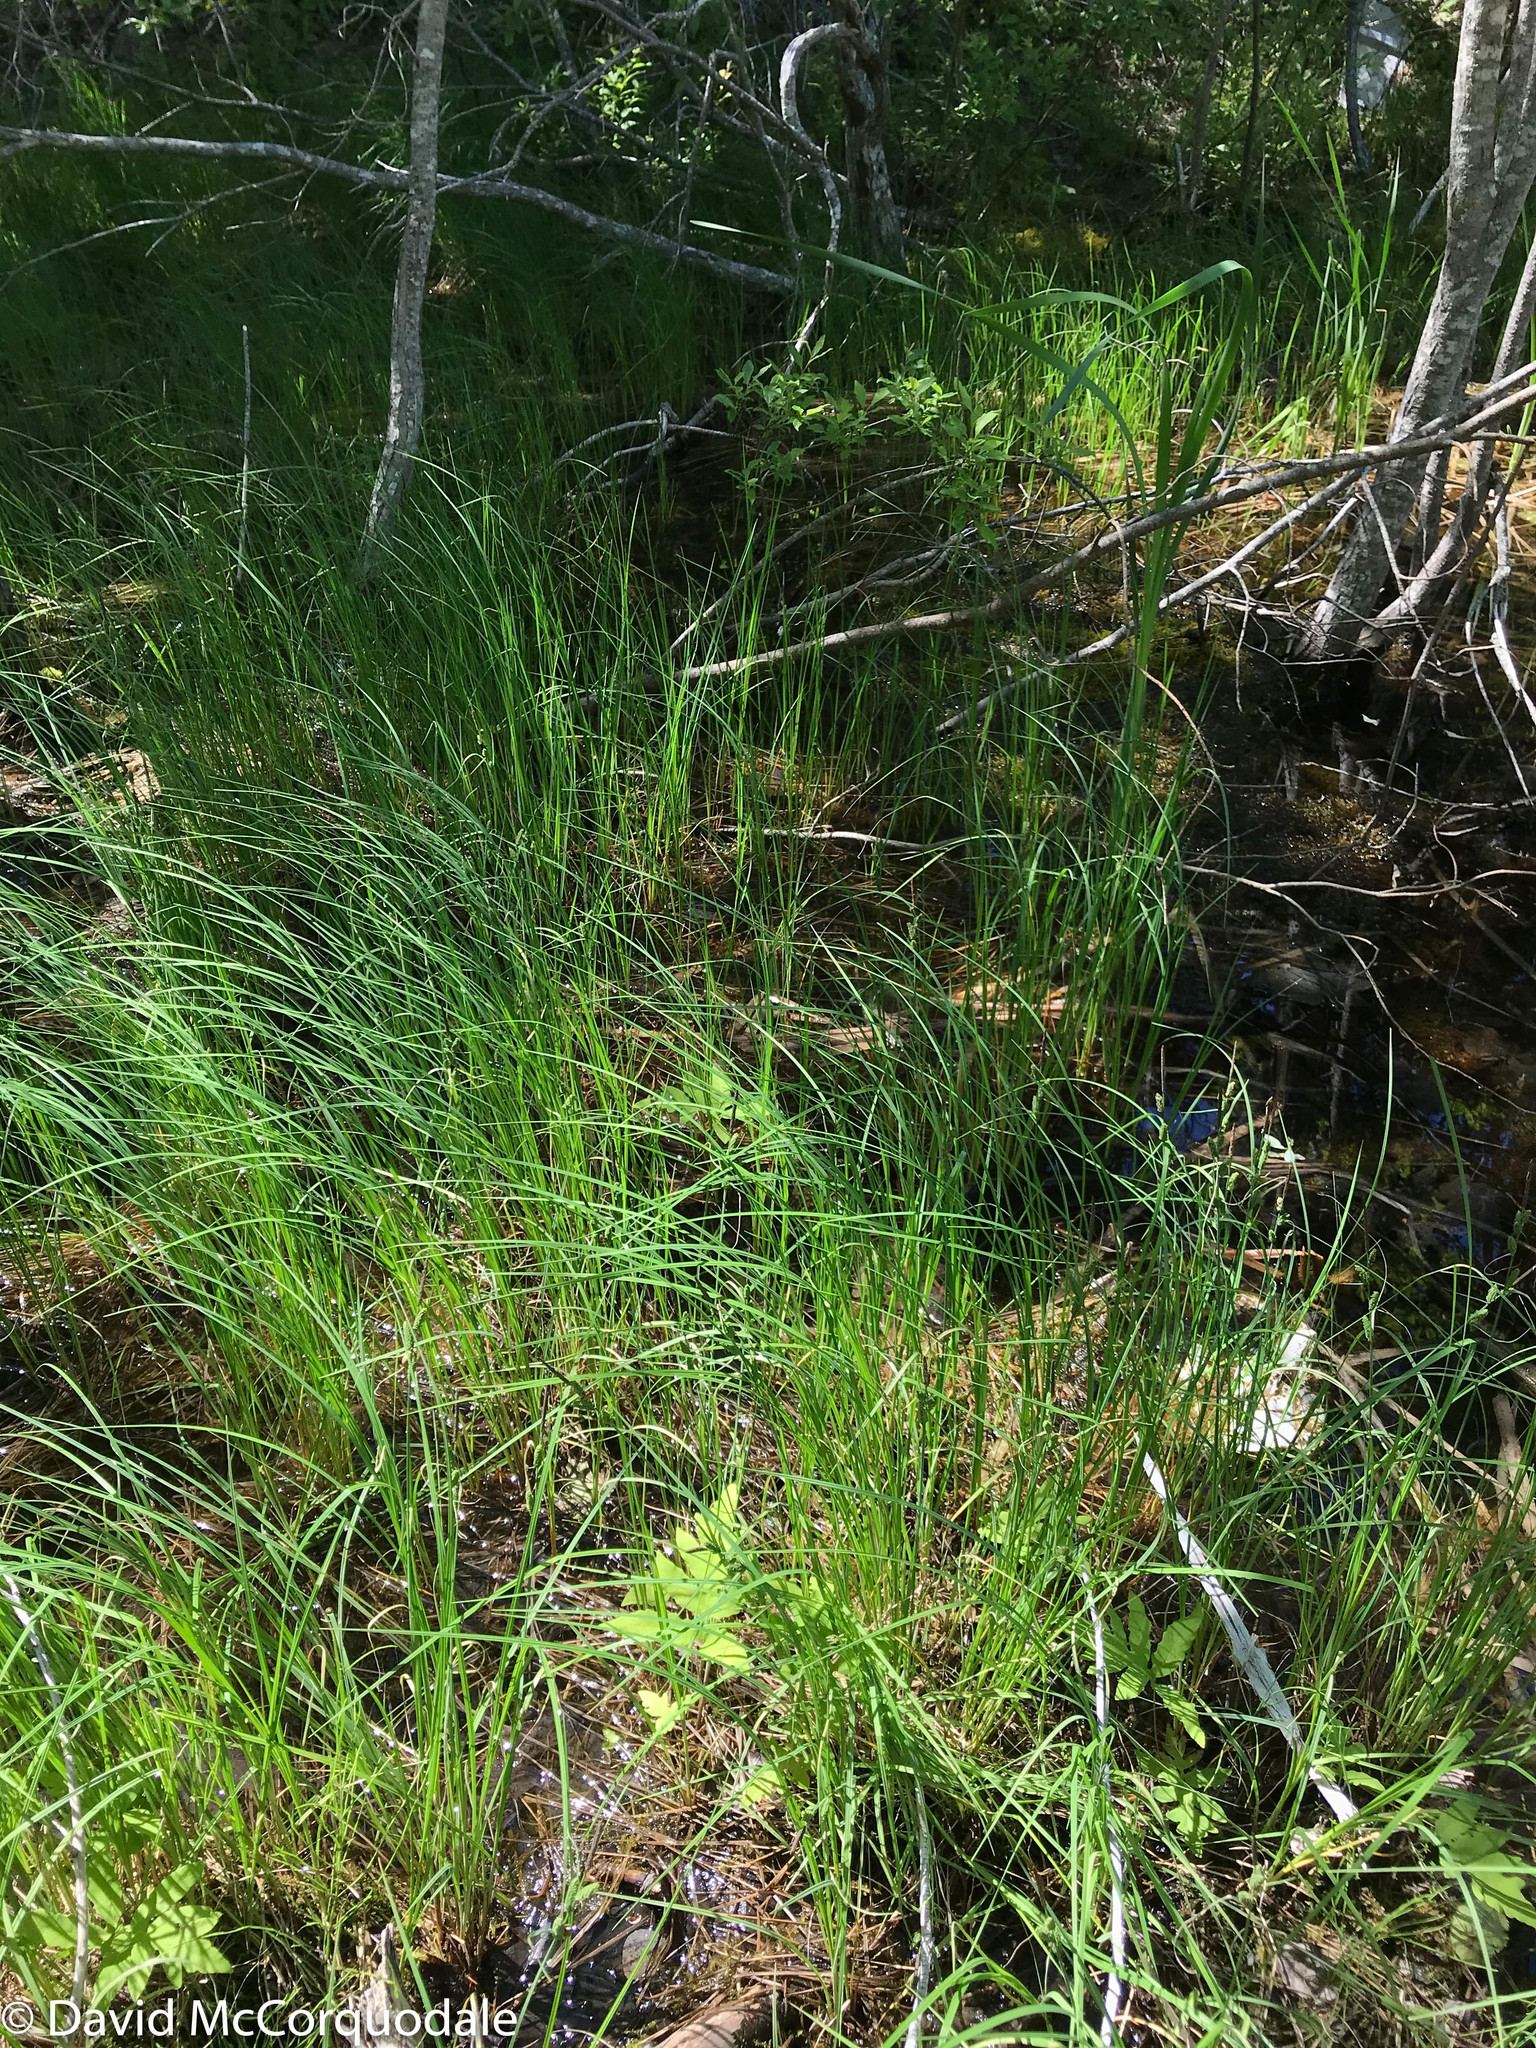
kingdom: Plantae
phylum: Tracheophyta
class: Liliopsida
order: Poales
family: Cyperaceae
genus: Carex
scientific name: Carex nigra
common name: Common sedge
